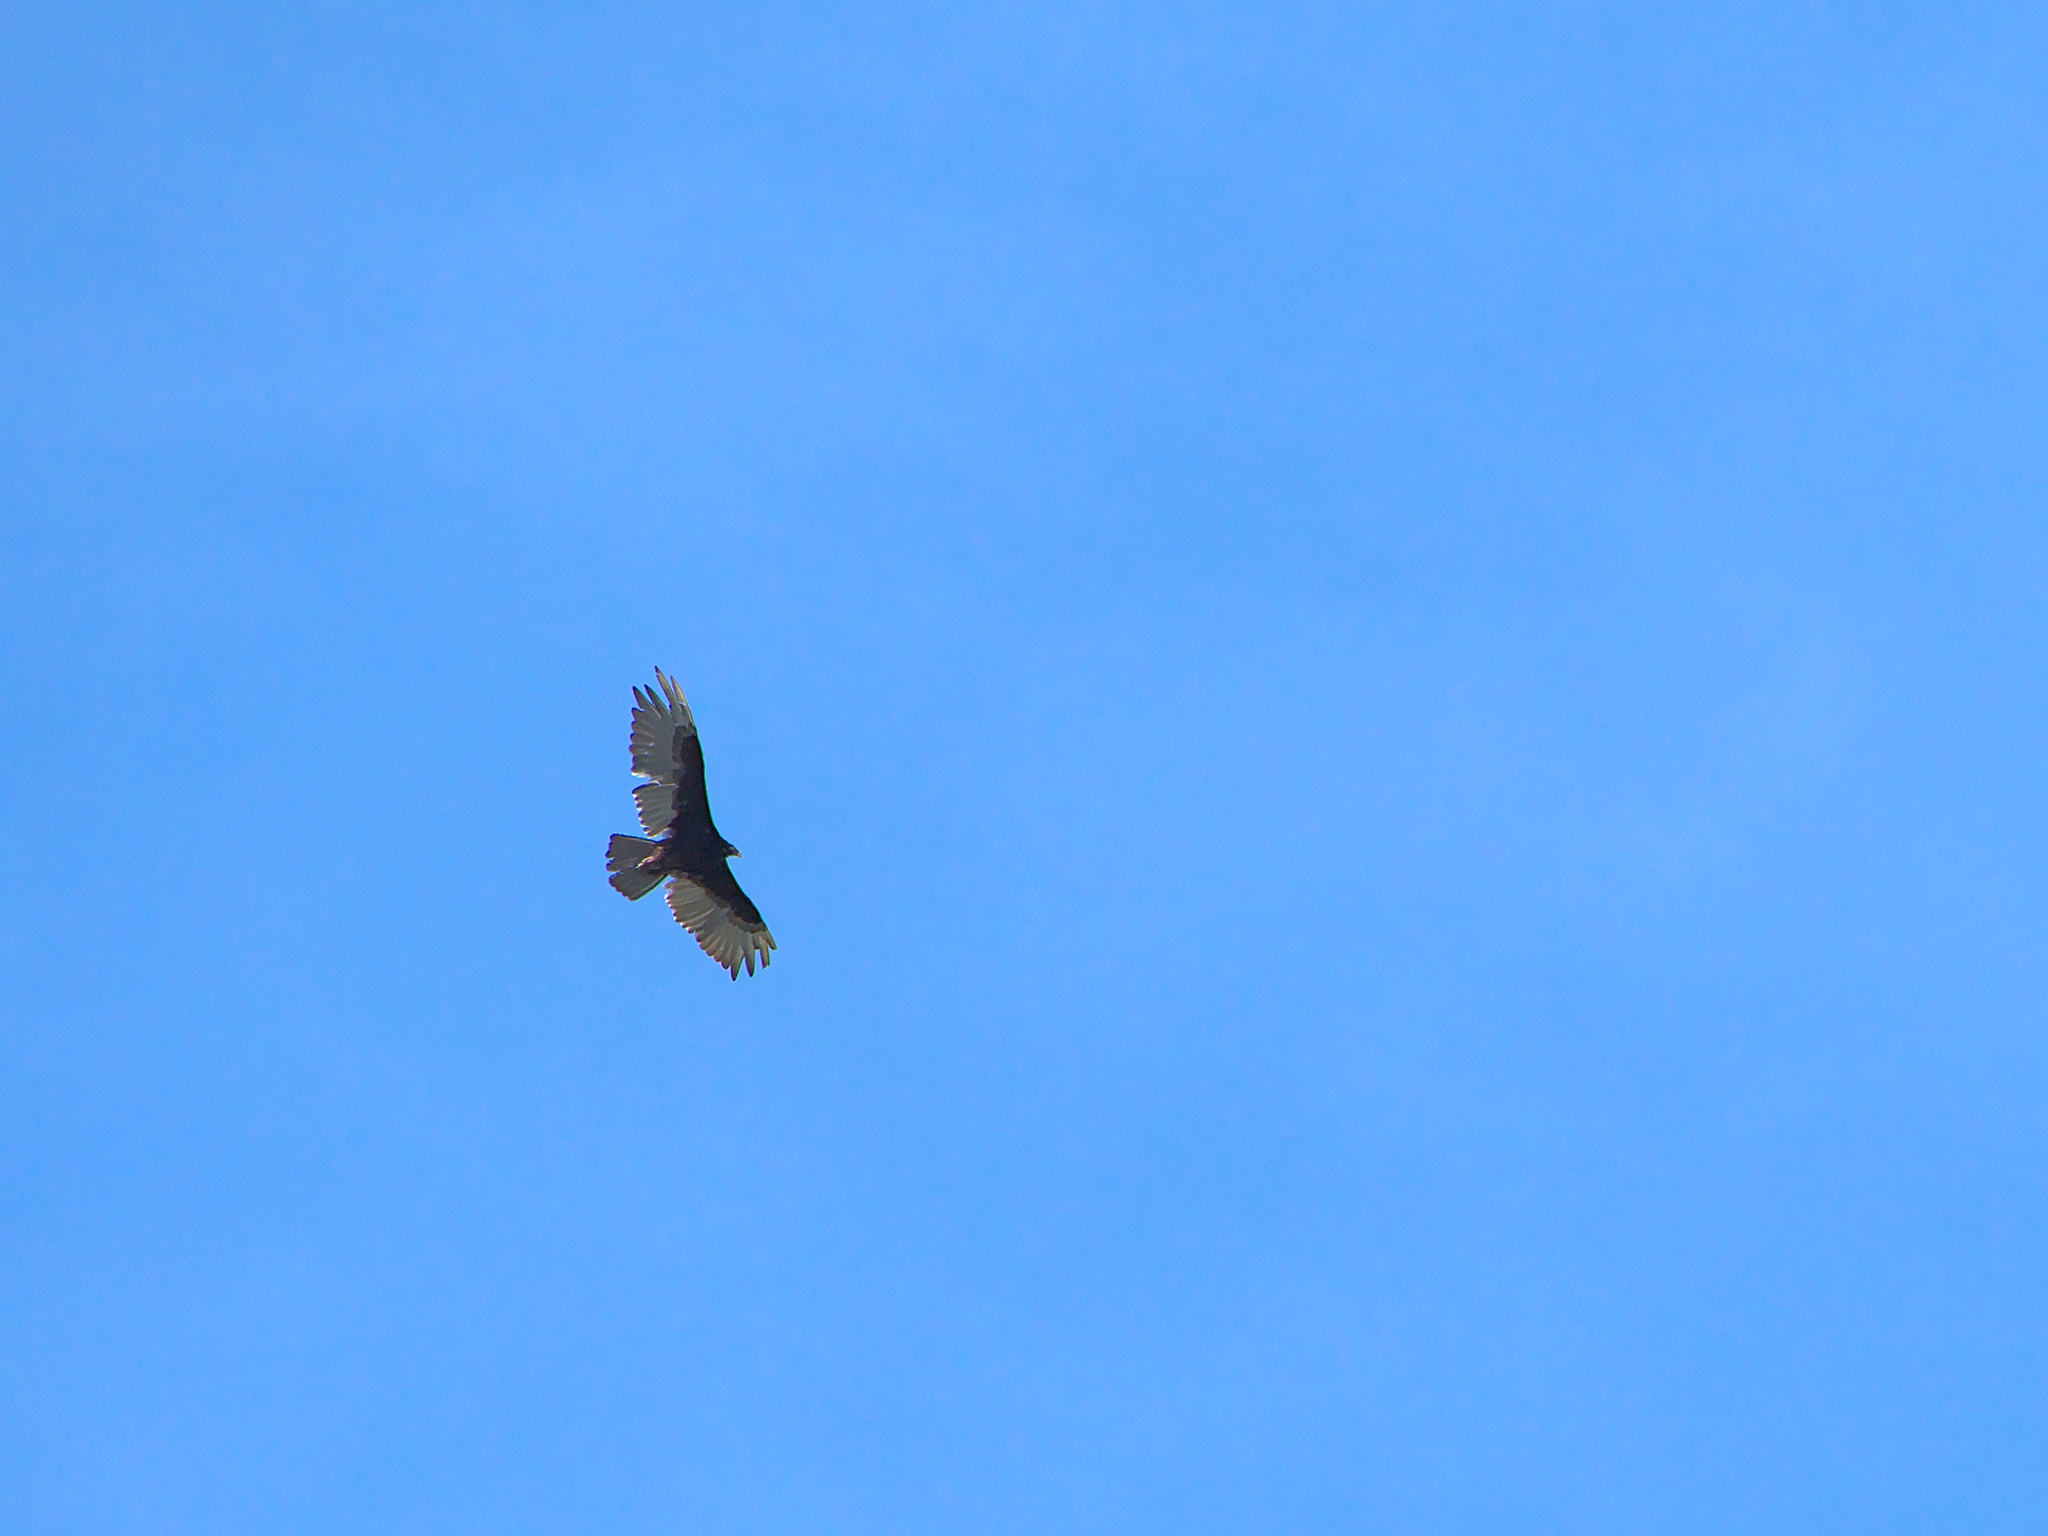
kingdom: Animalia
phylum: Chordata
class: Aves
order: Accipitriformes
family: Cathartidae
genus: Cathartes
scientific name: Cathartes aura
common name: Turkey vulture
